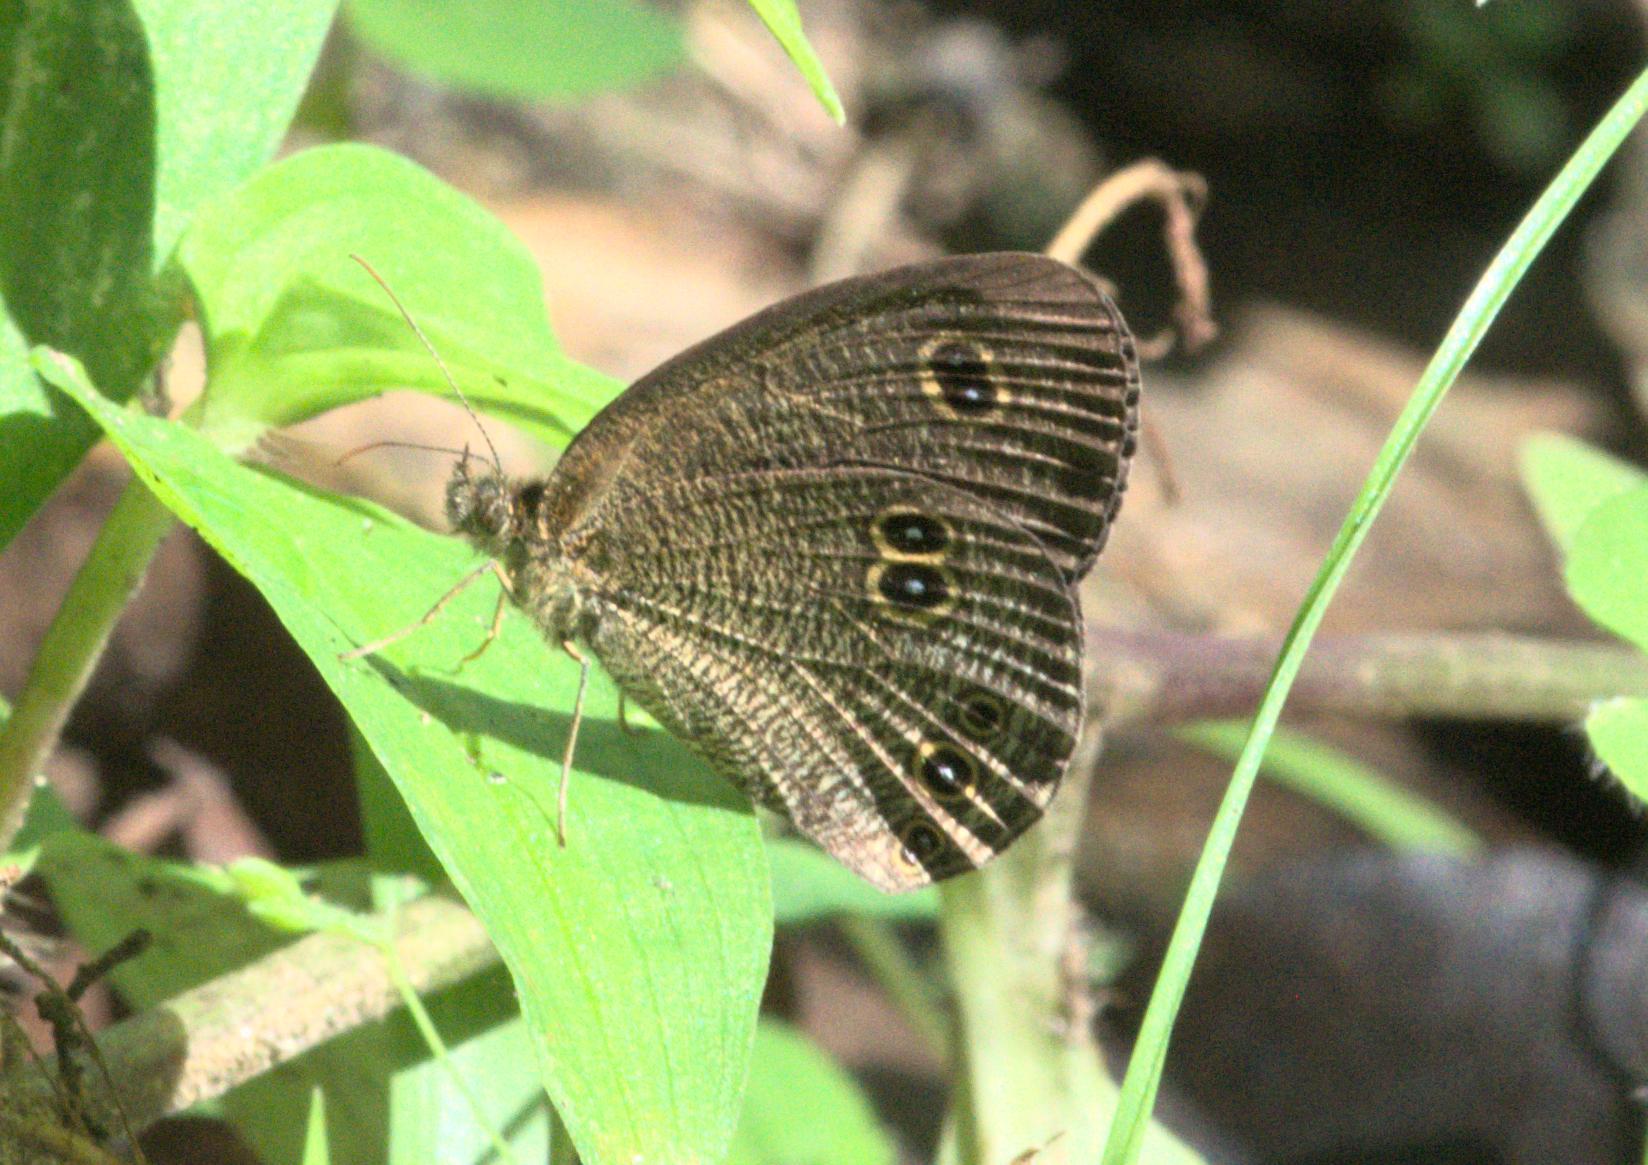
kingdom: Animalia
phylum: Arthropoda
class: Insecta
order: Lepidoptera
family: Nymphalidae
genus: Ypthima
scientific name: Ypthima nikaea
